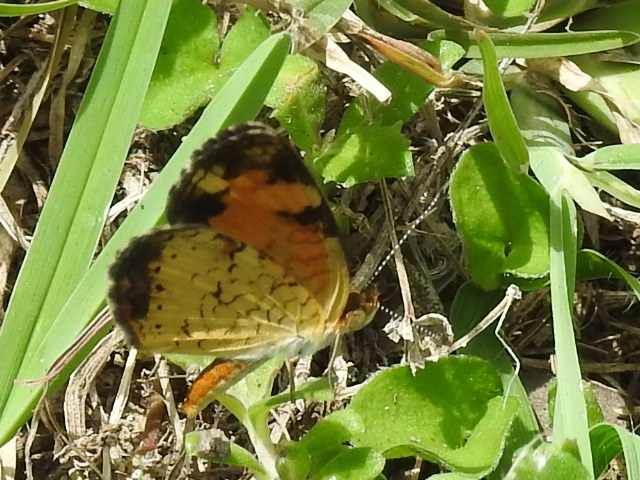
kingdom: Animalia
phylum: Arthropoda
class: Insecta
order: Lepidoptera
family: Nymphalidae
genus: Phyciodes
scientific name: Phyciodes tharos
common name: Pearl crescent
